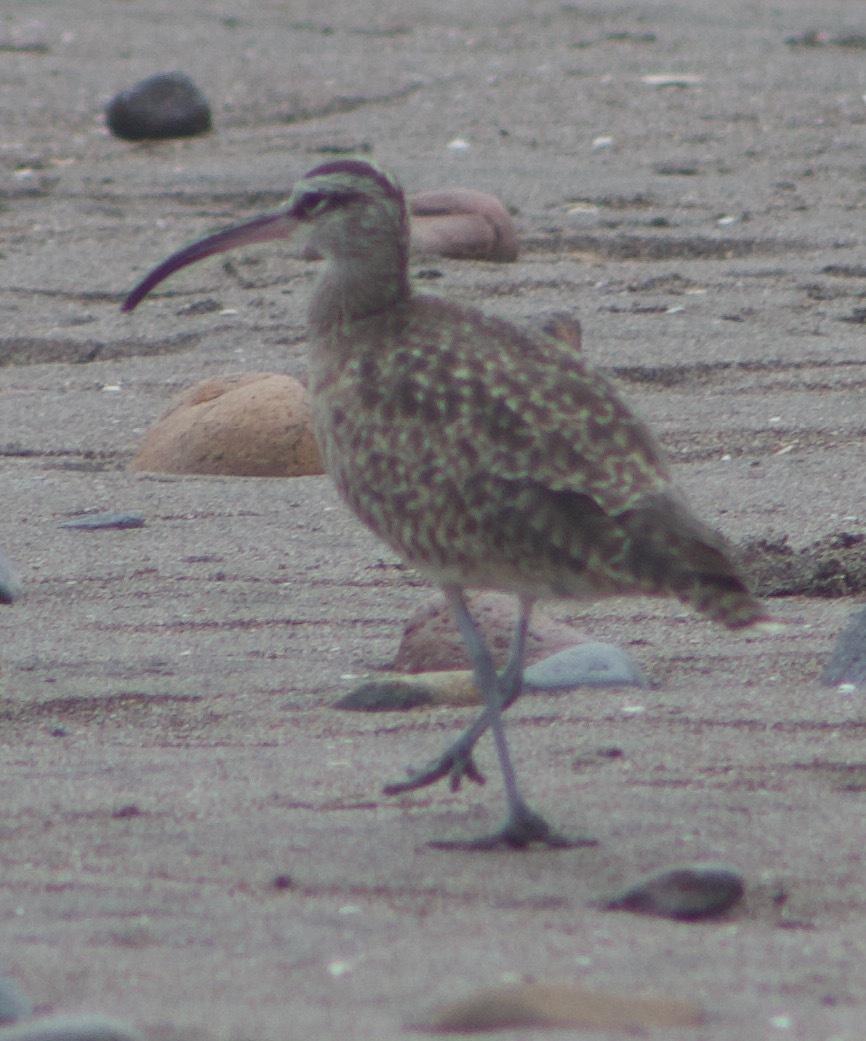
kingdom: Animalia
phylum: Chordata
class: Aves
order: Charadriiformes
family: Scolopacidae
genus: Numenius
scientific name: Numenius phaeopus
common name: Whimbrel
